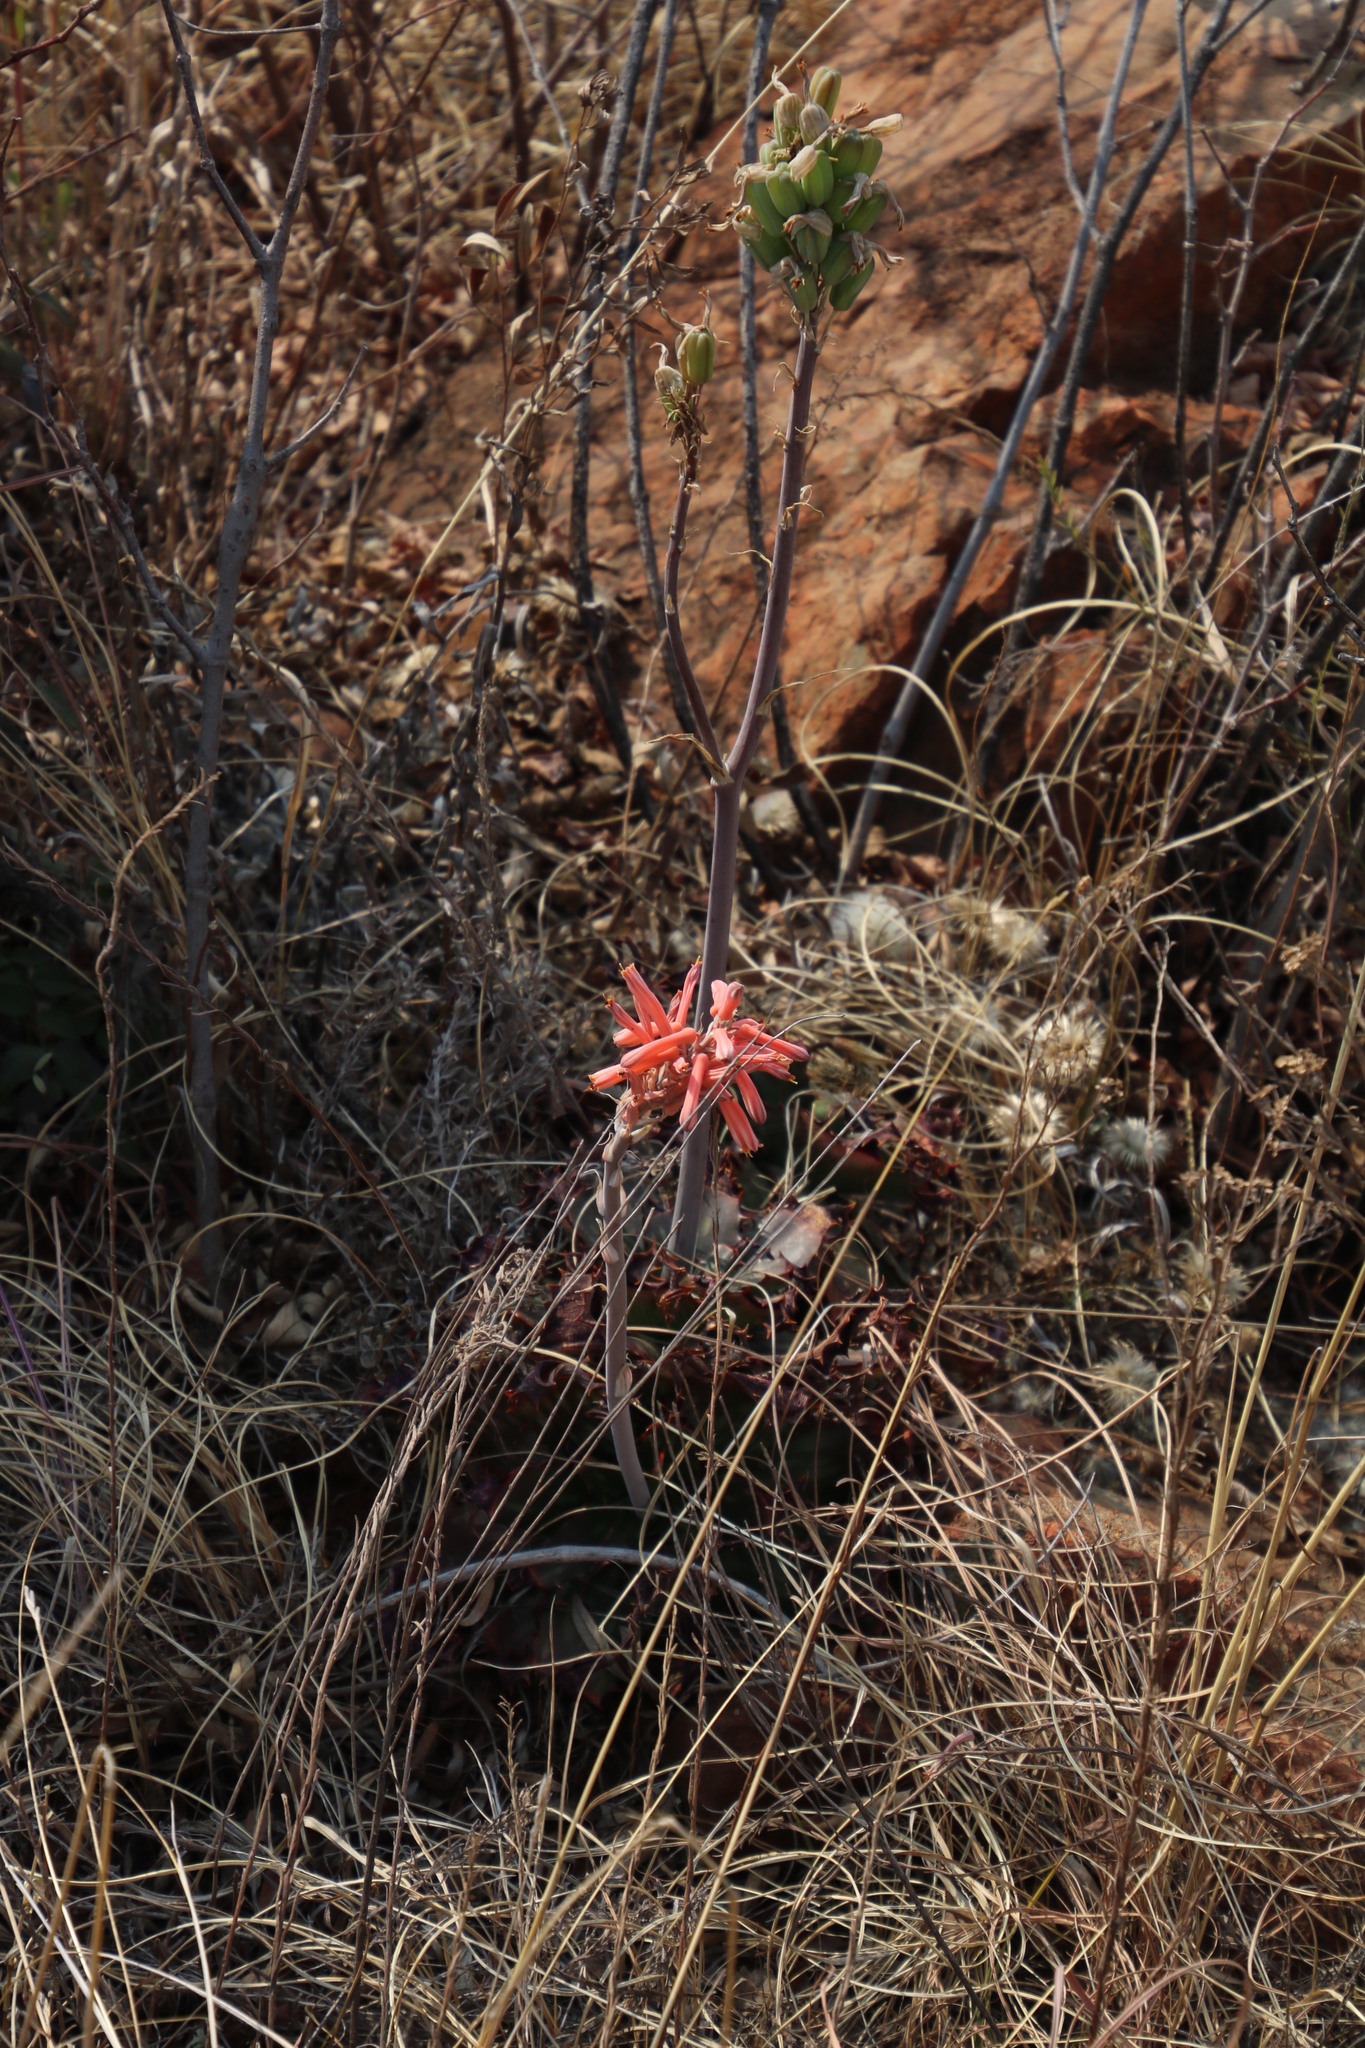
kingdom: Plantae
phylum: Tracheophyta
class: Liliopsida
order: Asparagales
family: Asphodelaceae
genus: Aloe
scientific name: Aloe davyana
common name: Spotted aloe
